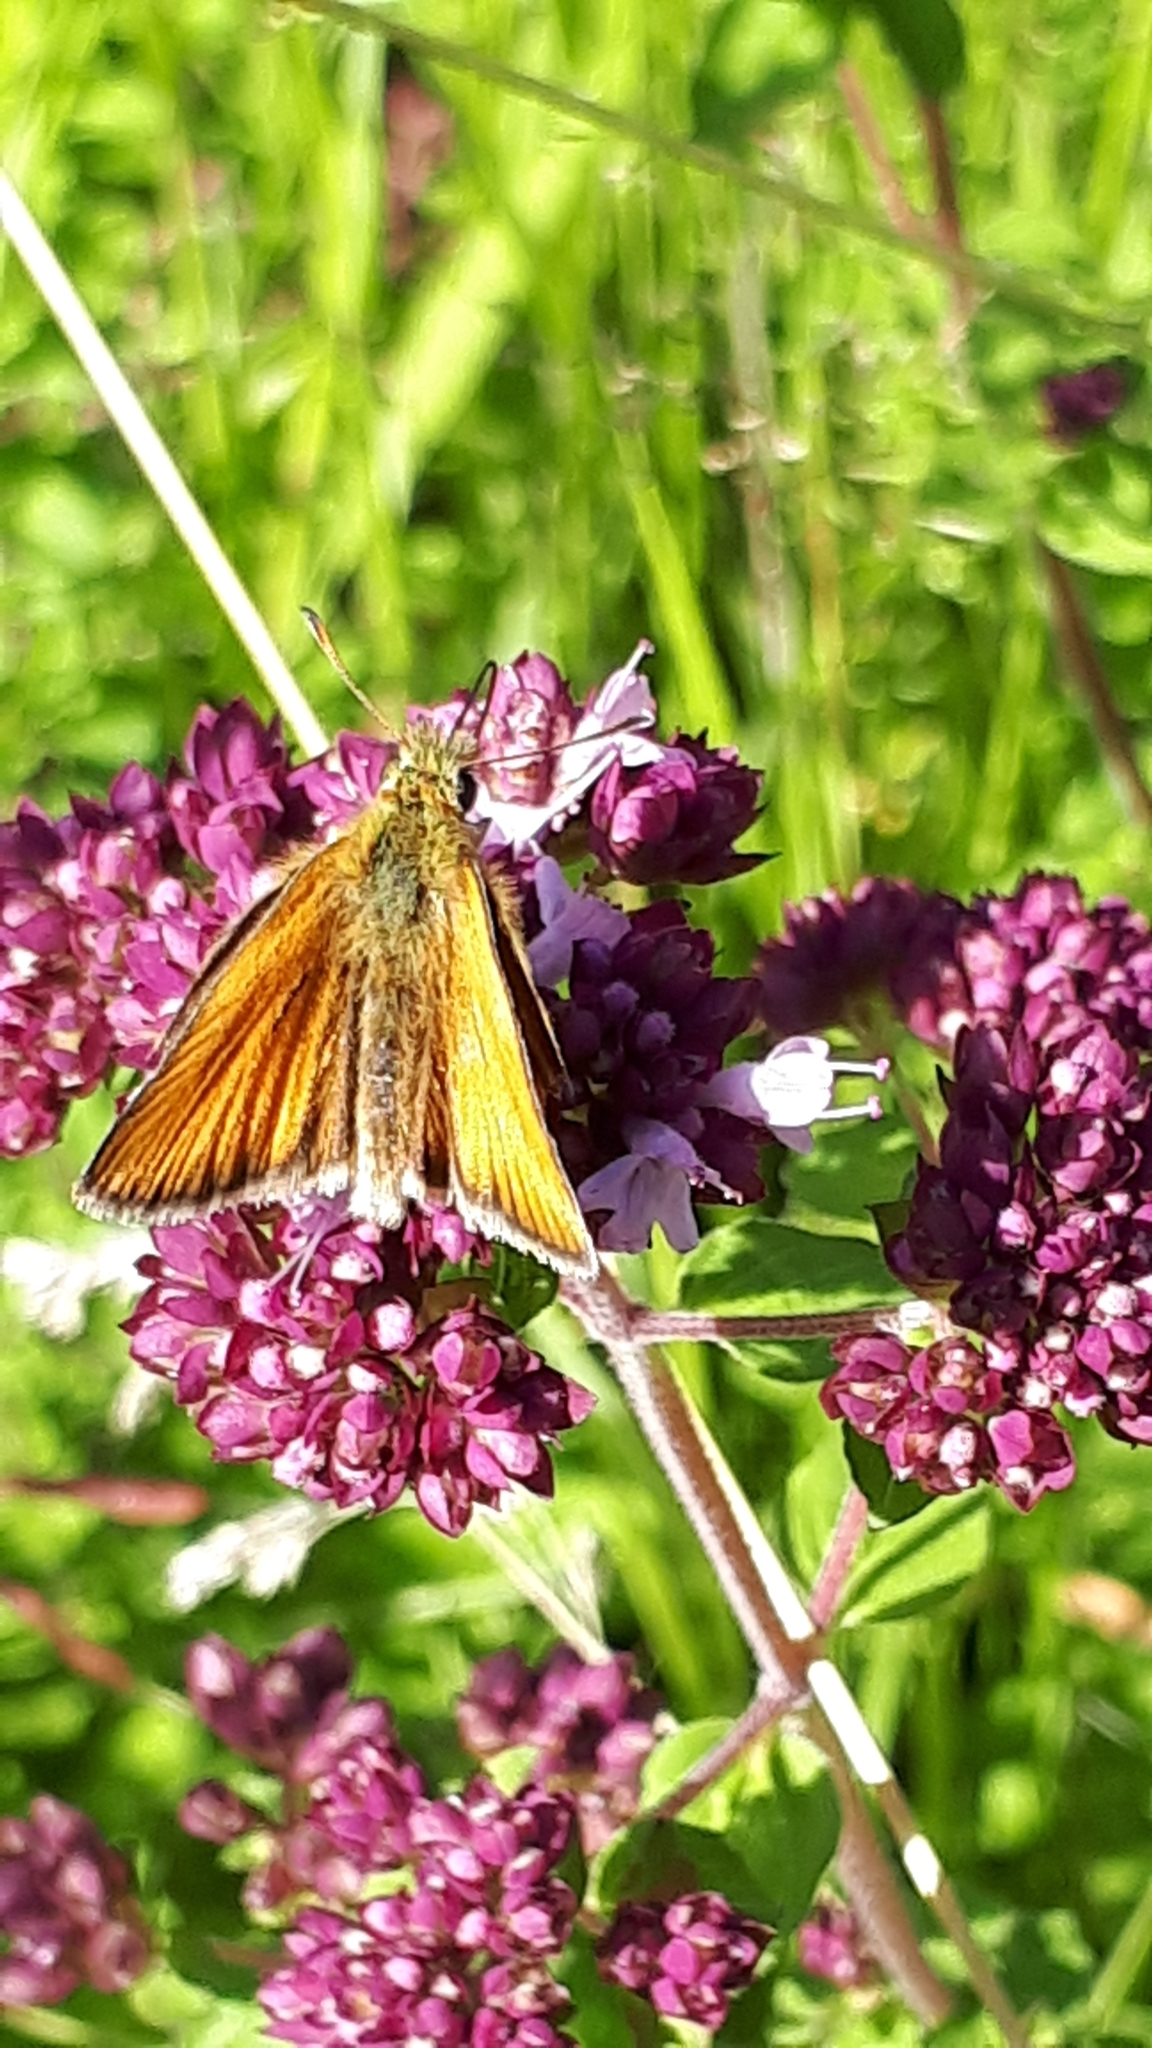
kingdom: Animalia
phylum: Arthropoda
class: Insecta
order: Lepidoptera
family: Hesperiidae
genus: Thymelicus
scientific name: Thymelicus lineola
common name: Essex skipper
